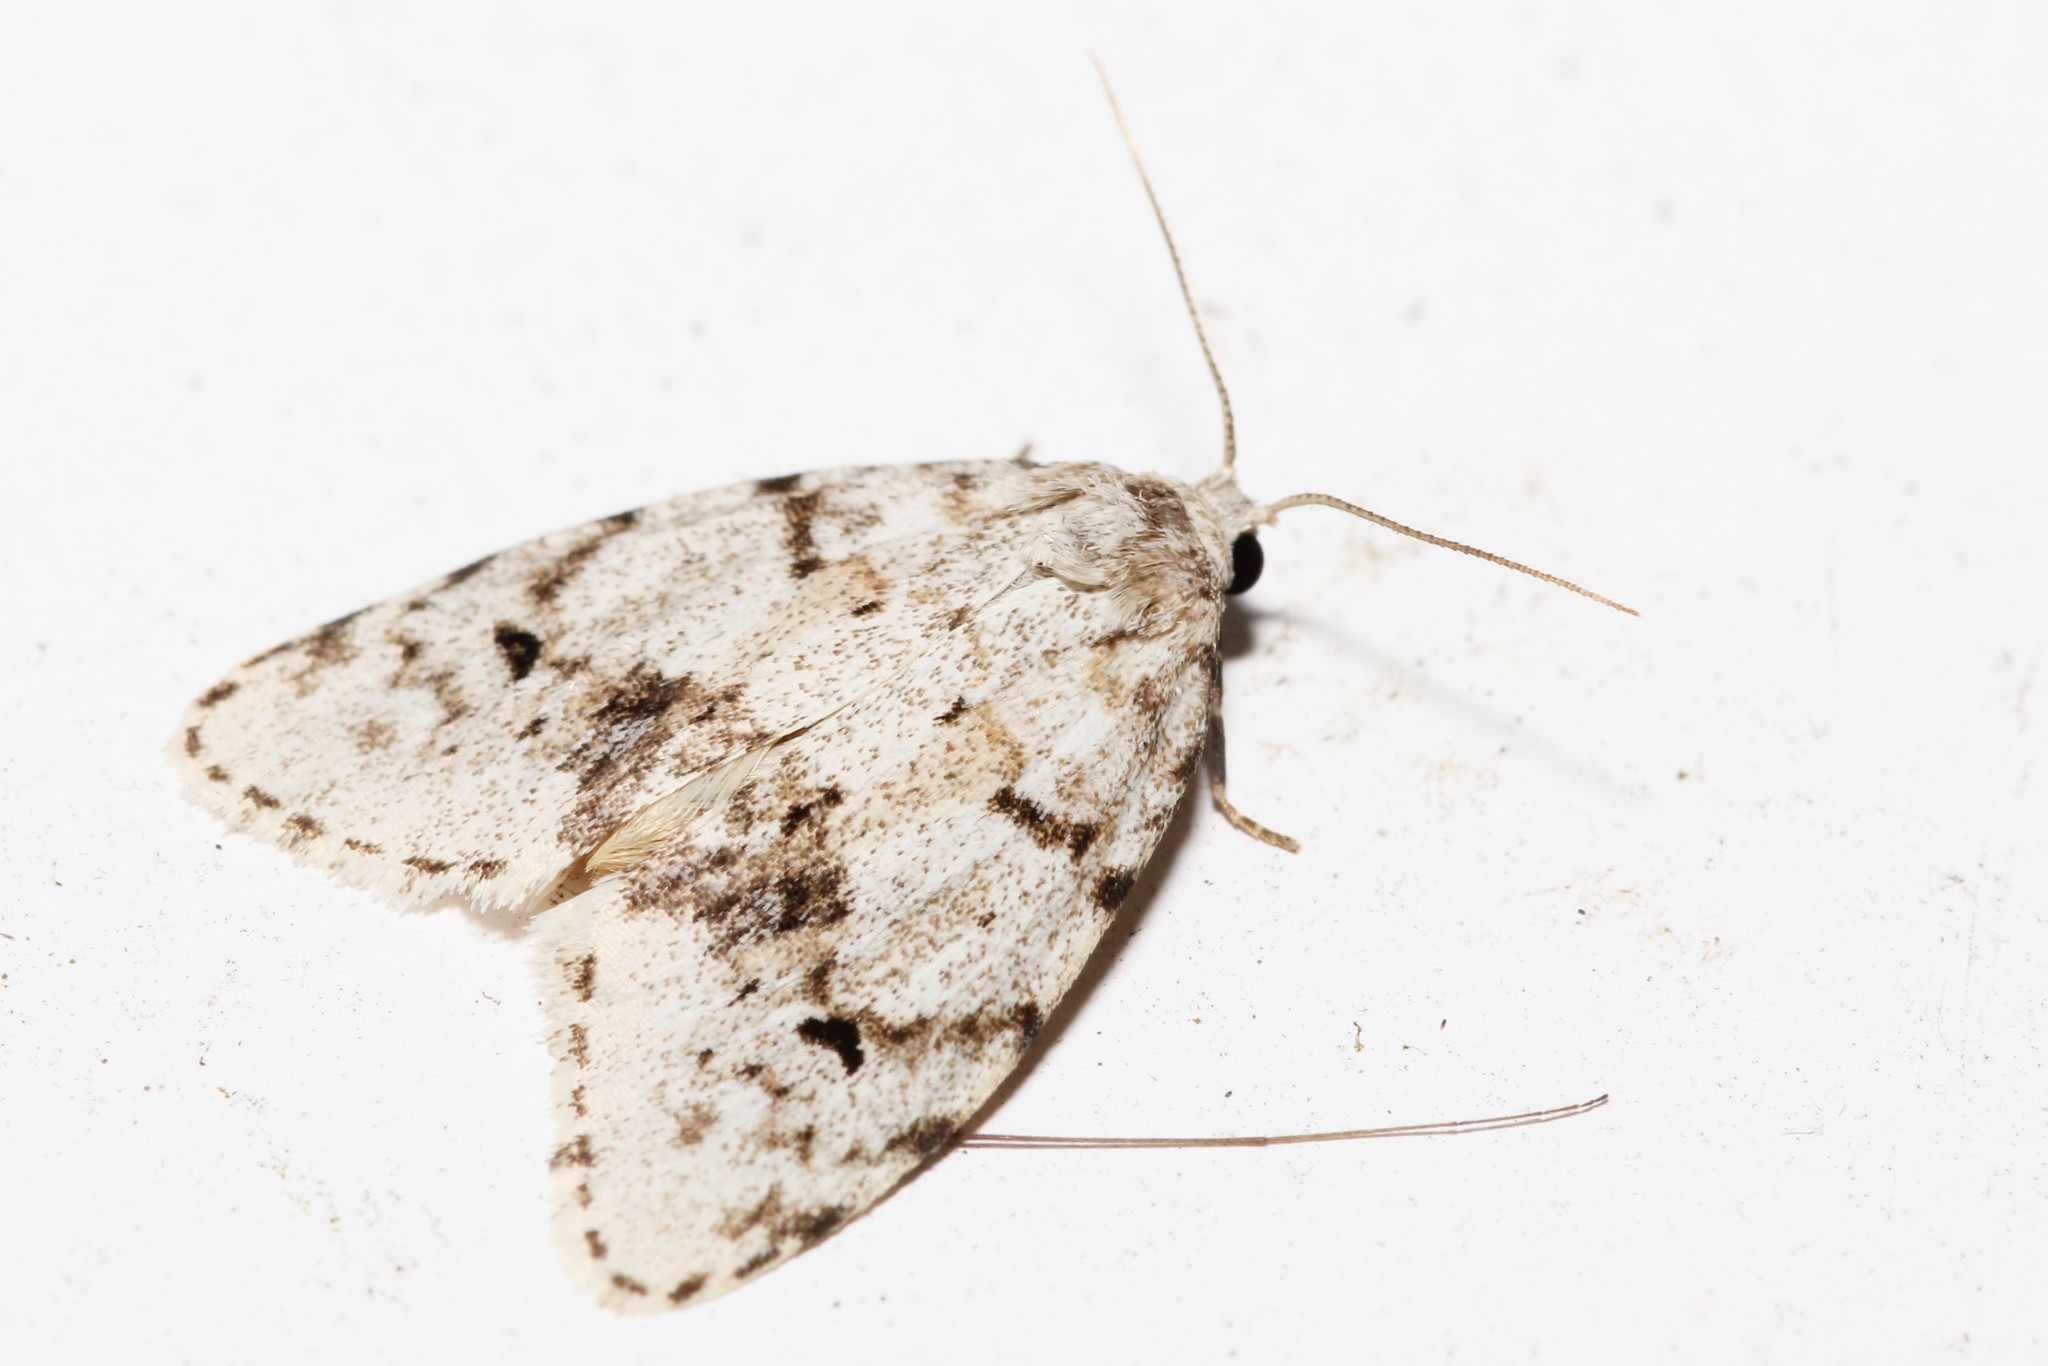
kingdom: Animalia
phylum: Arthropoda
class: Insecta
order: Lepidoptera
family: Erebidae
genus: Clemensia
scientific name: Clemensia umbrata
